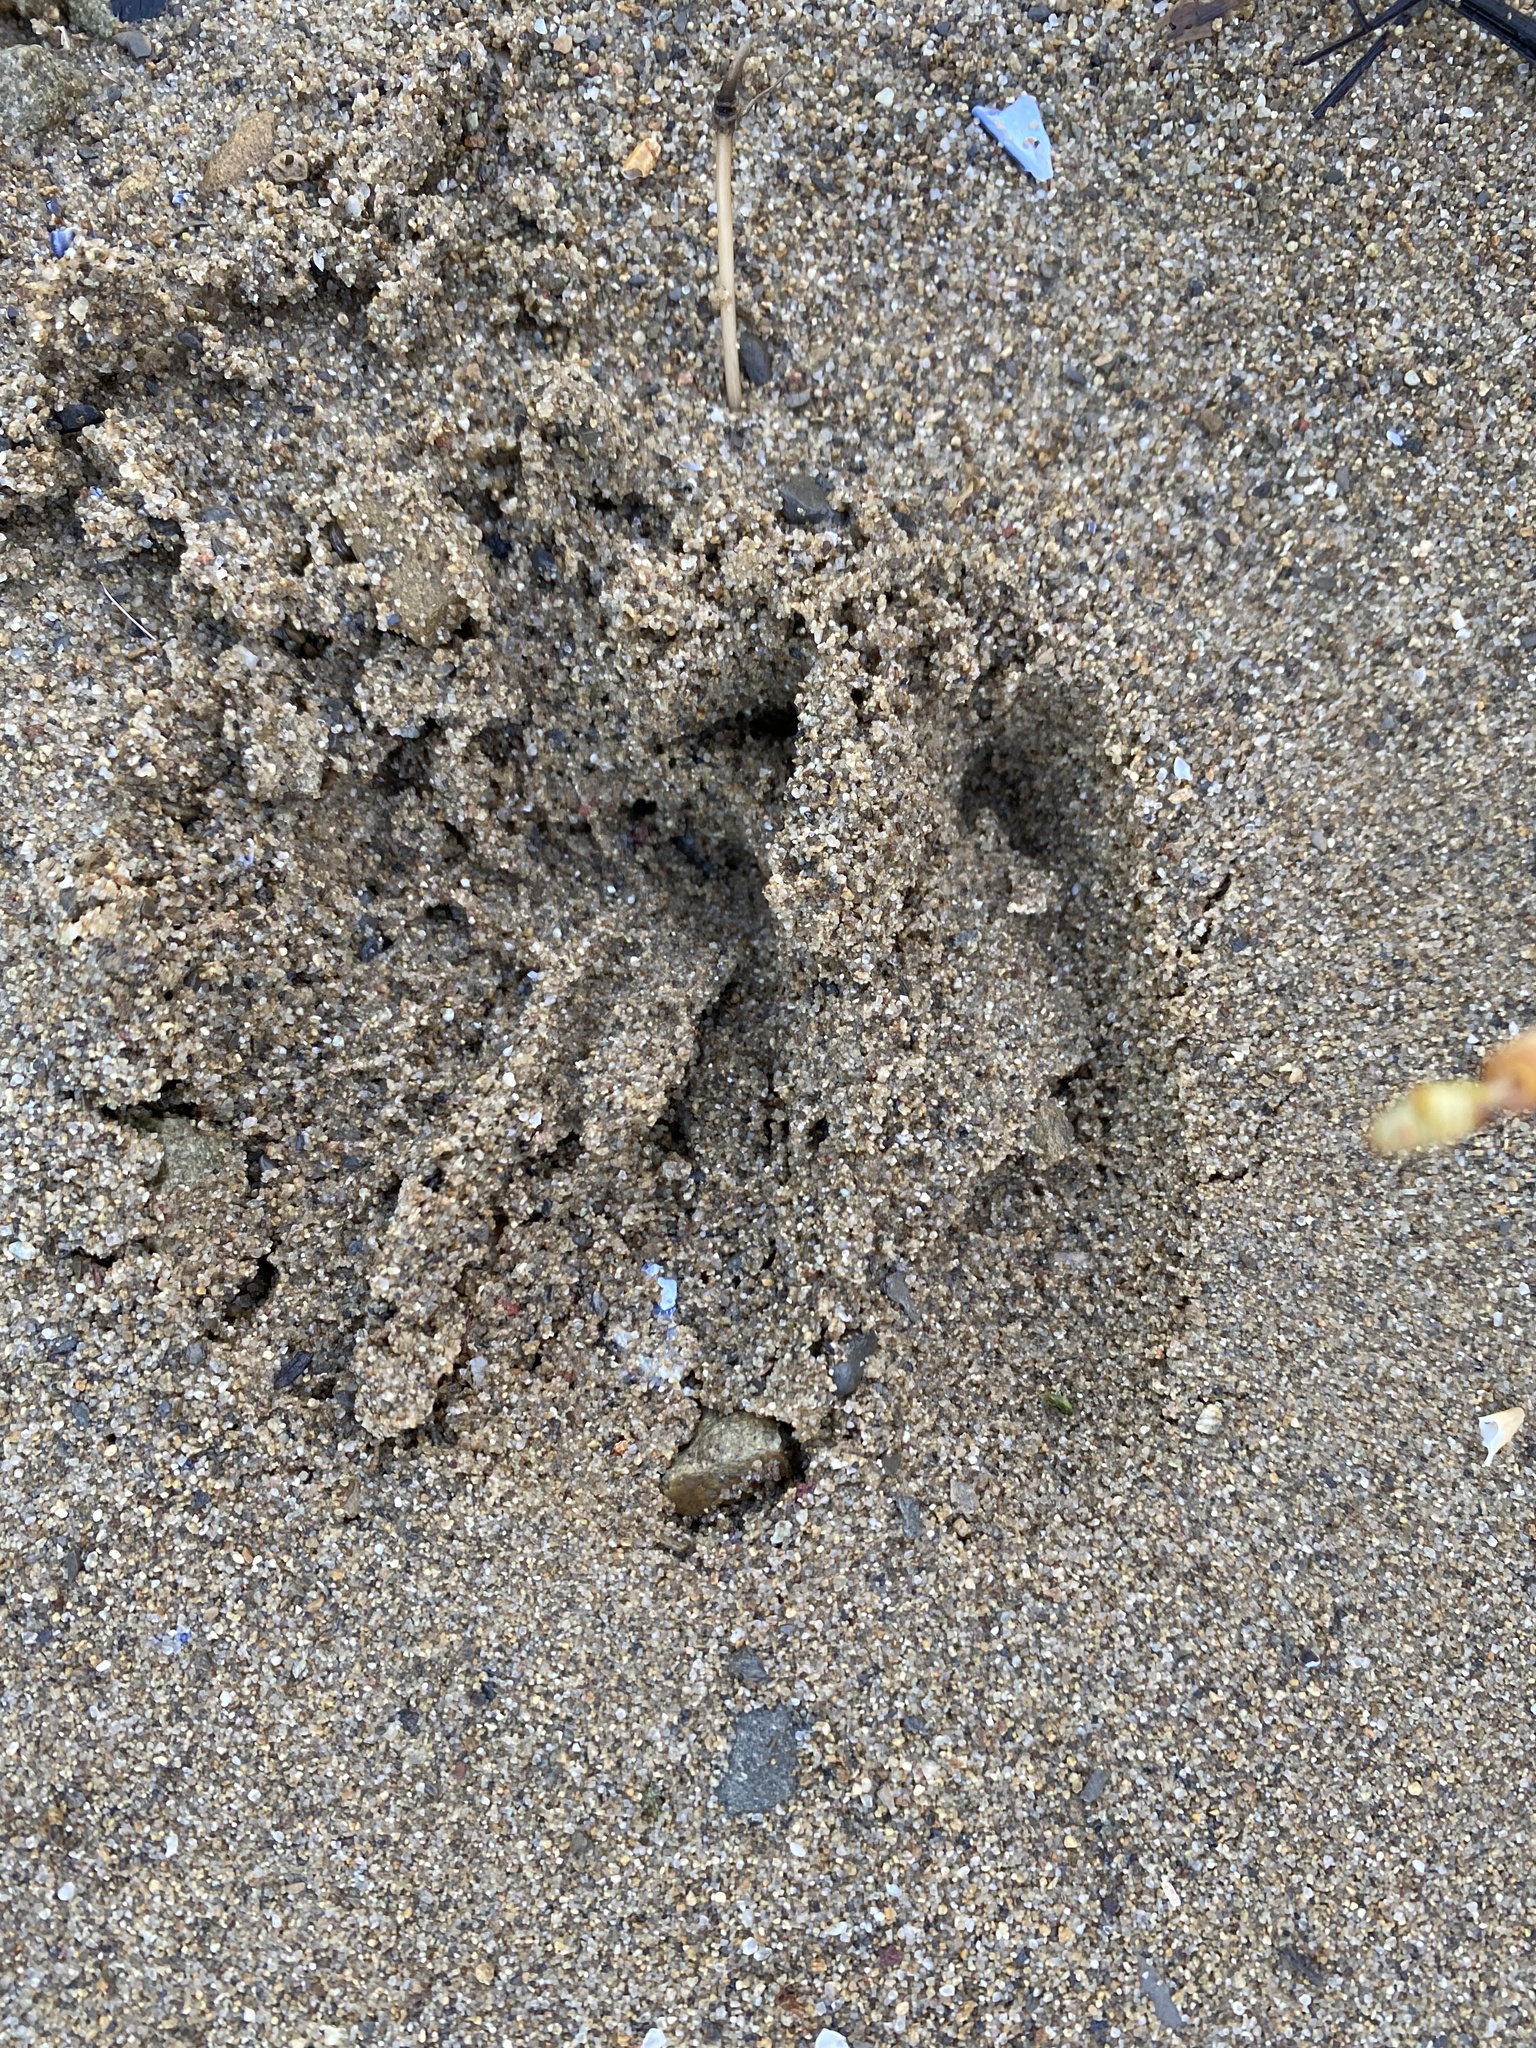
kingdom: Animalia
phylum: Chordata
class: Mammalia
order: Artiodactyla
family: Cervidae
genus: Odocoileus
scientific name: Odocoileus hemionus
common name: Mule deer
